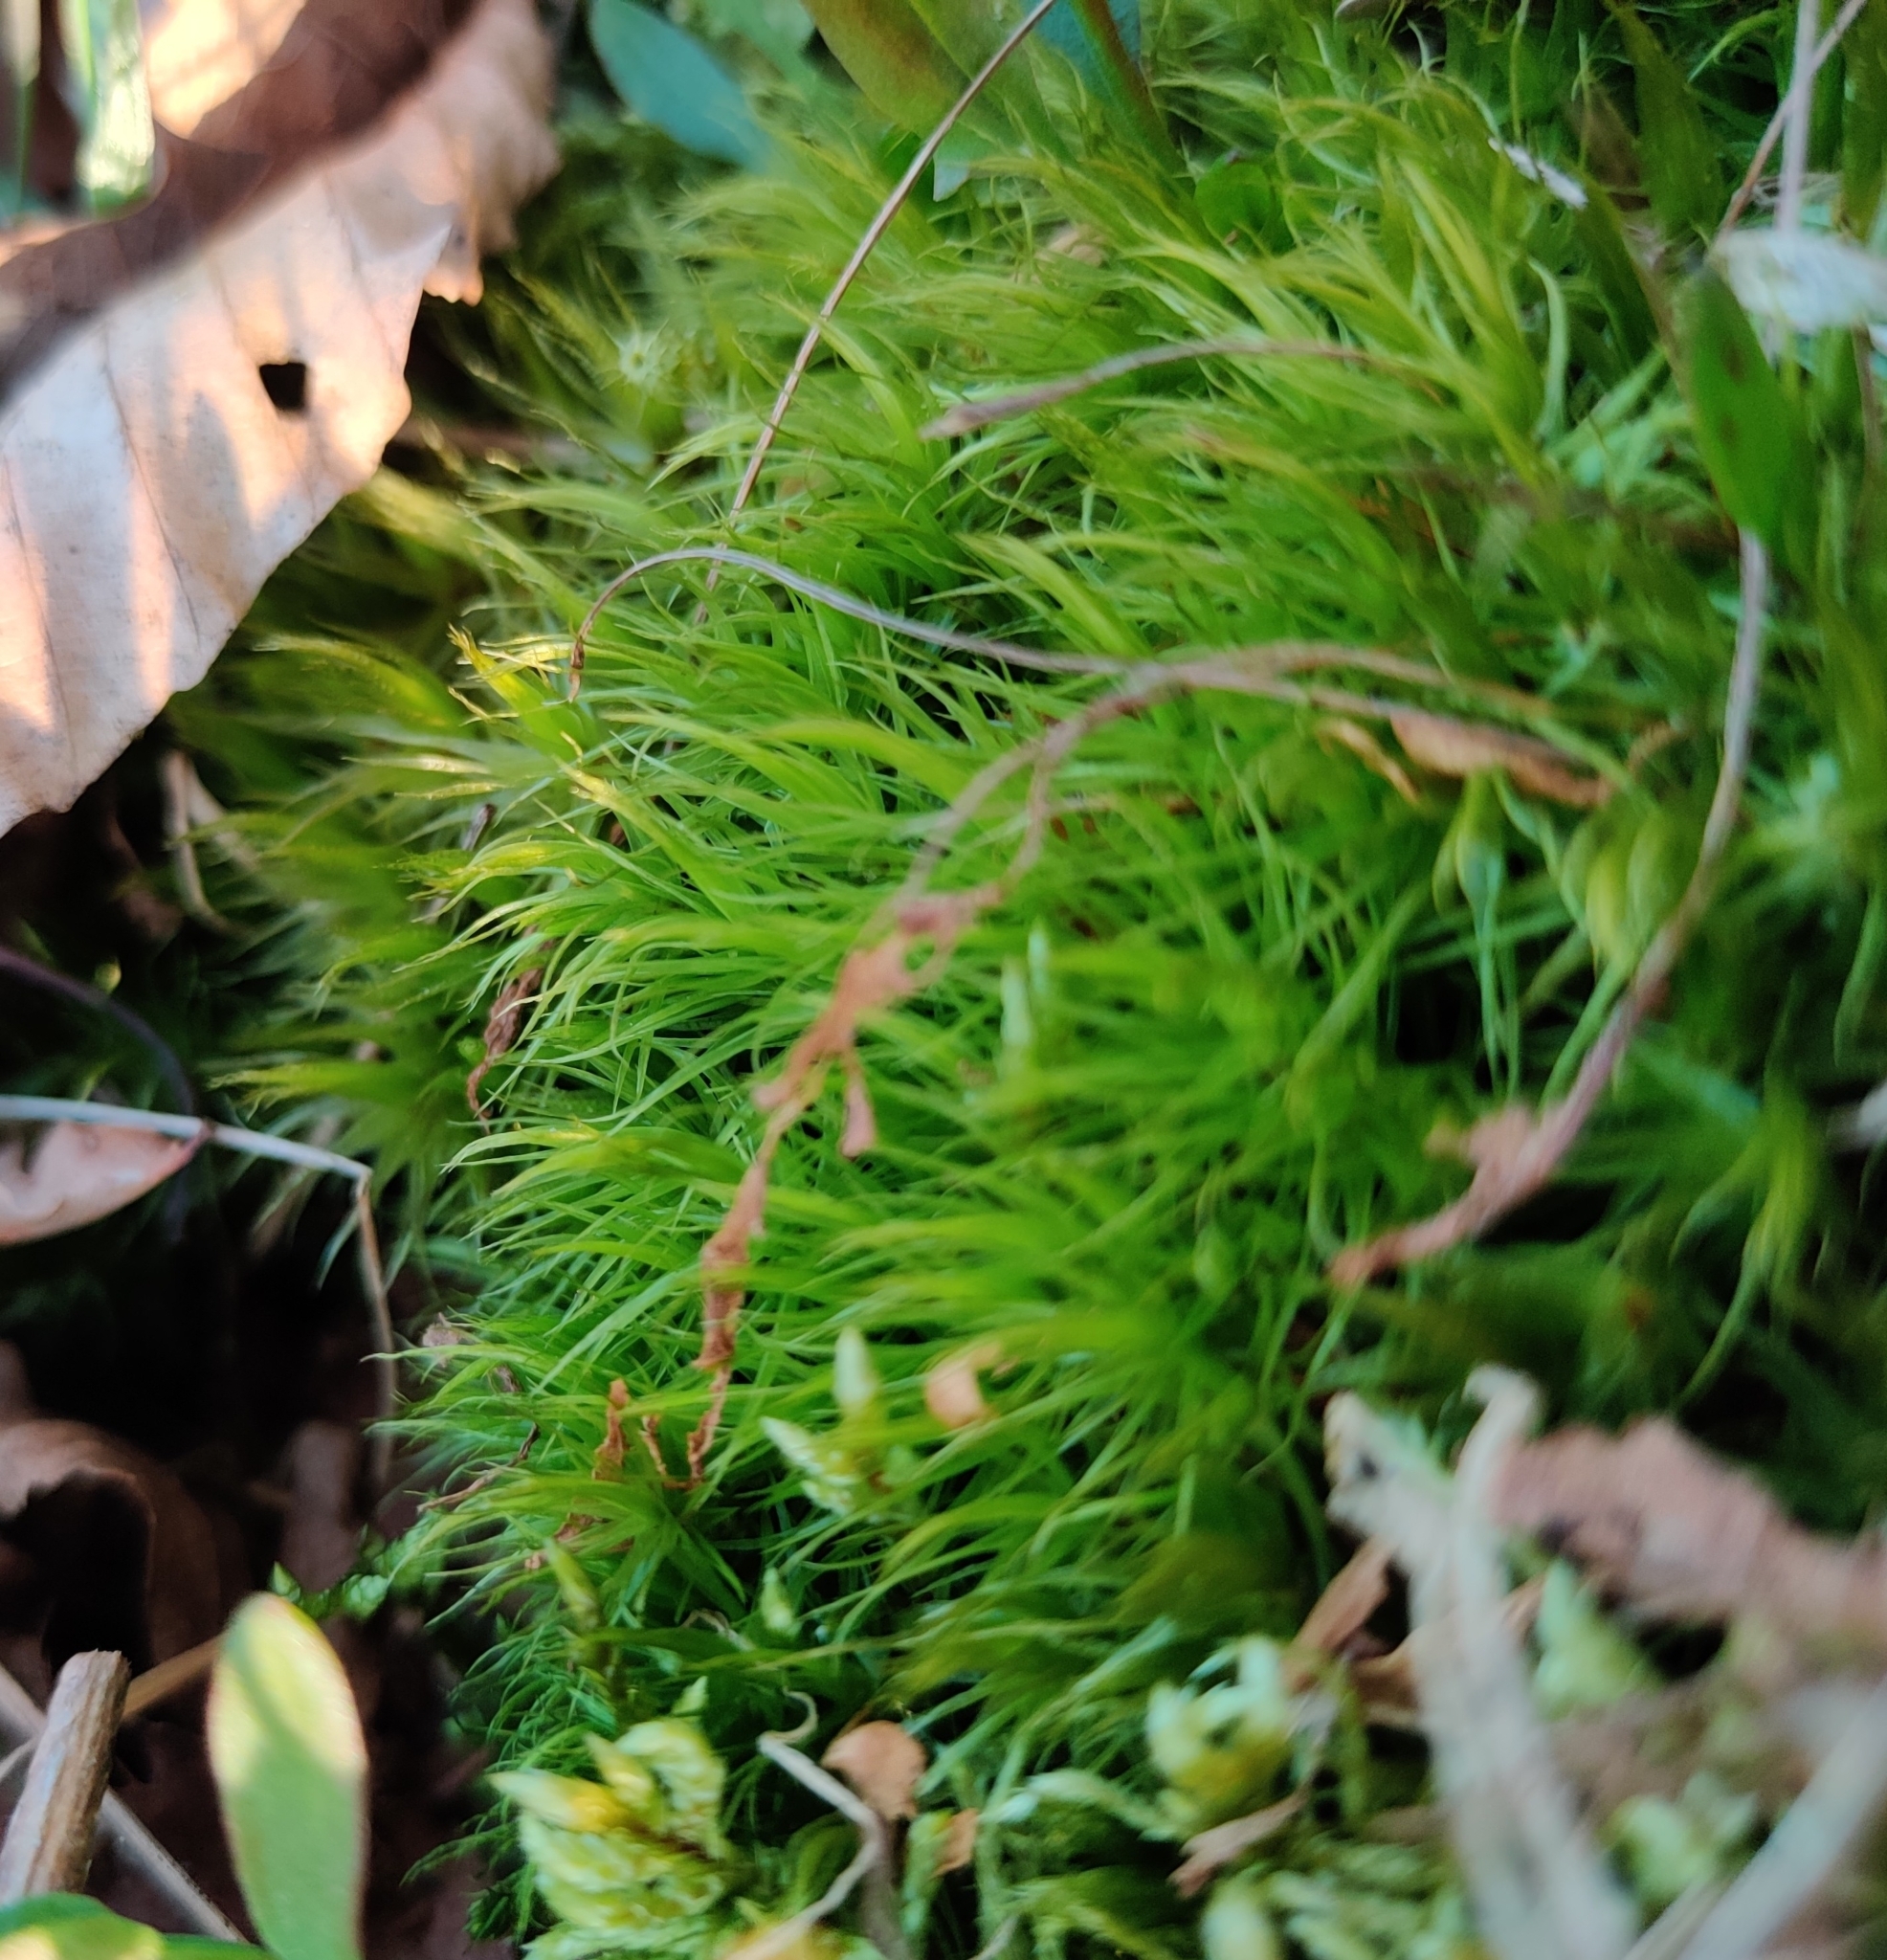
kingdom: Plantae
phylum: Bryophyta
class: Bryopsida
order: Dicranales
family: Dicranaceae
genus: Dicranum
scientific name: Dicranum scoparium
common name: Broom fork-moss
